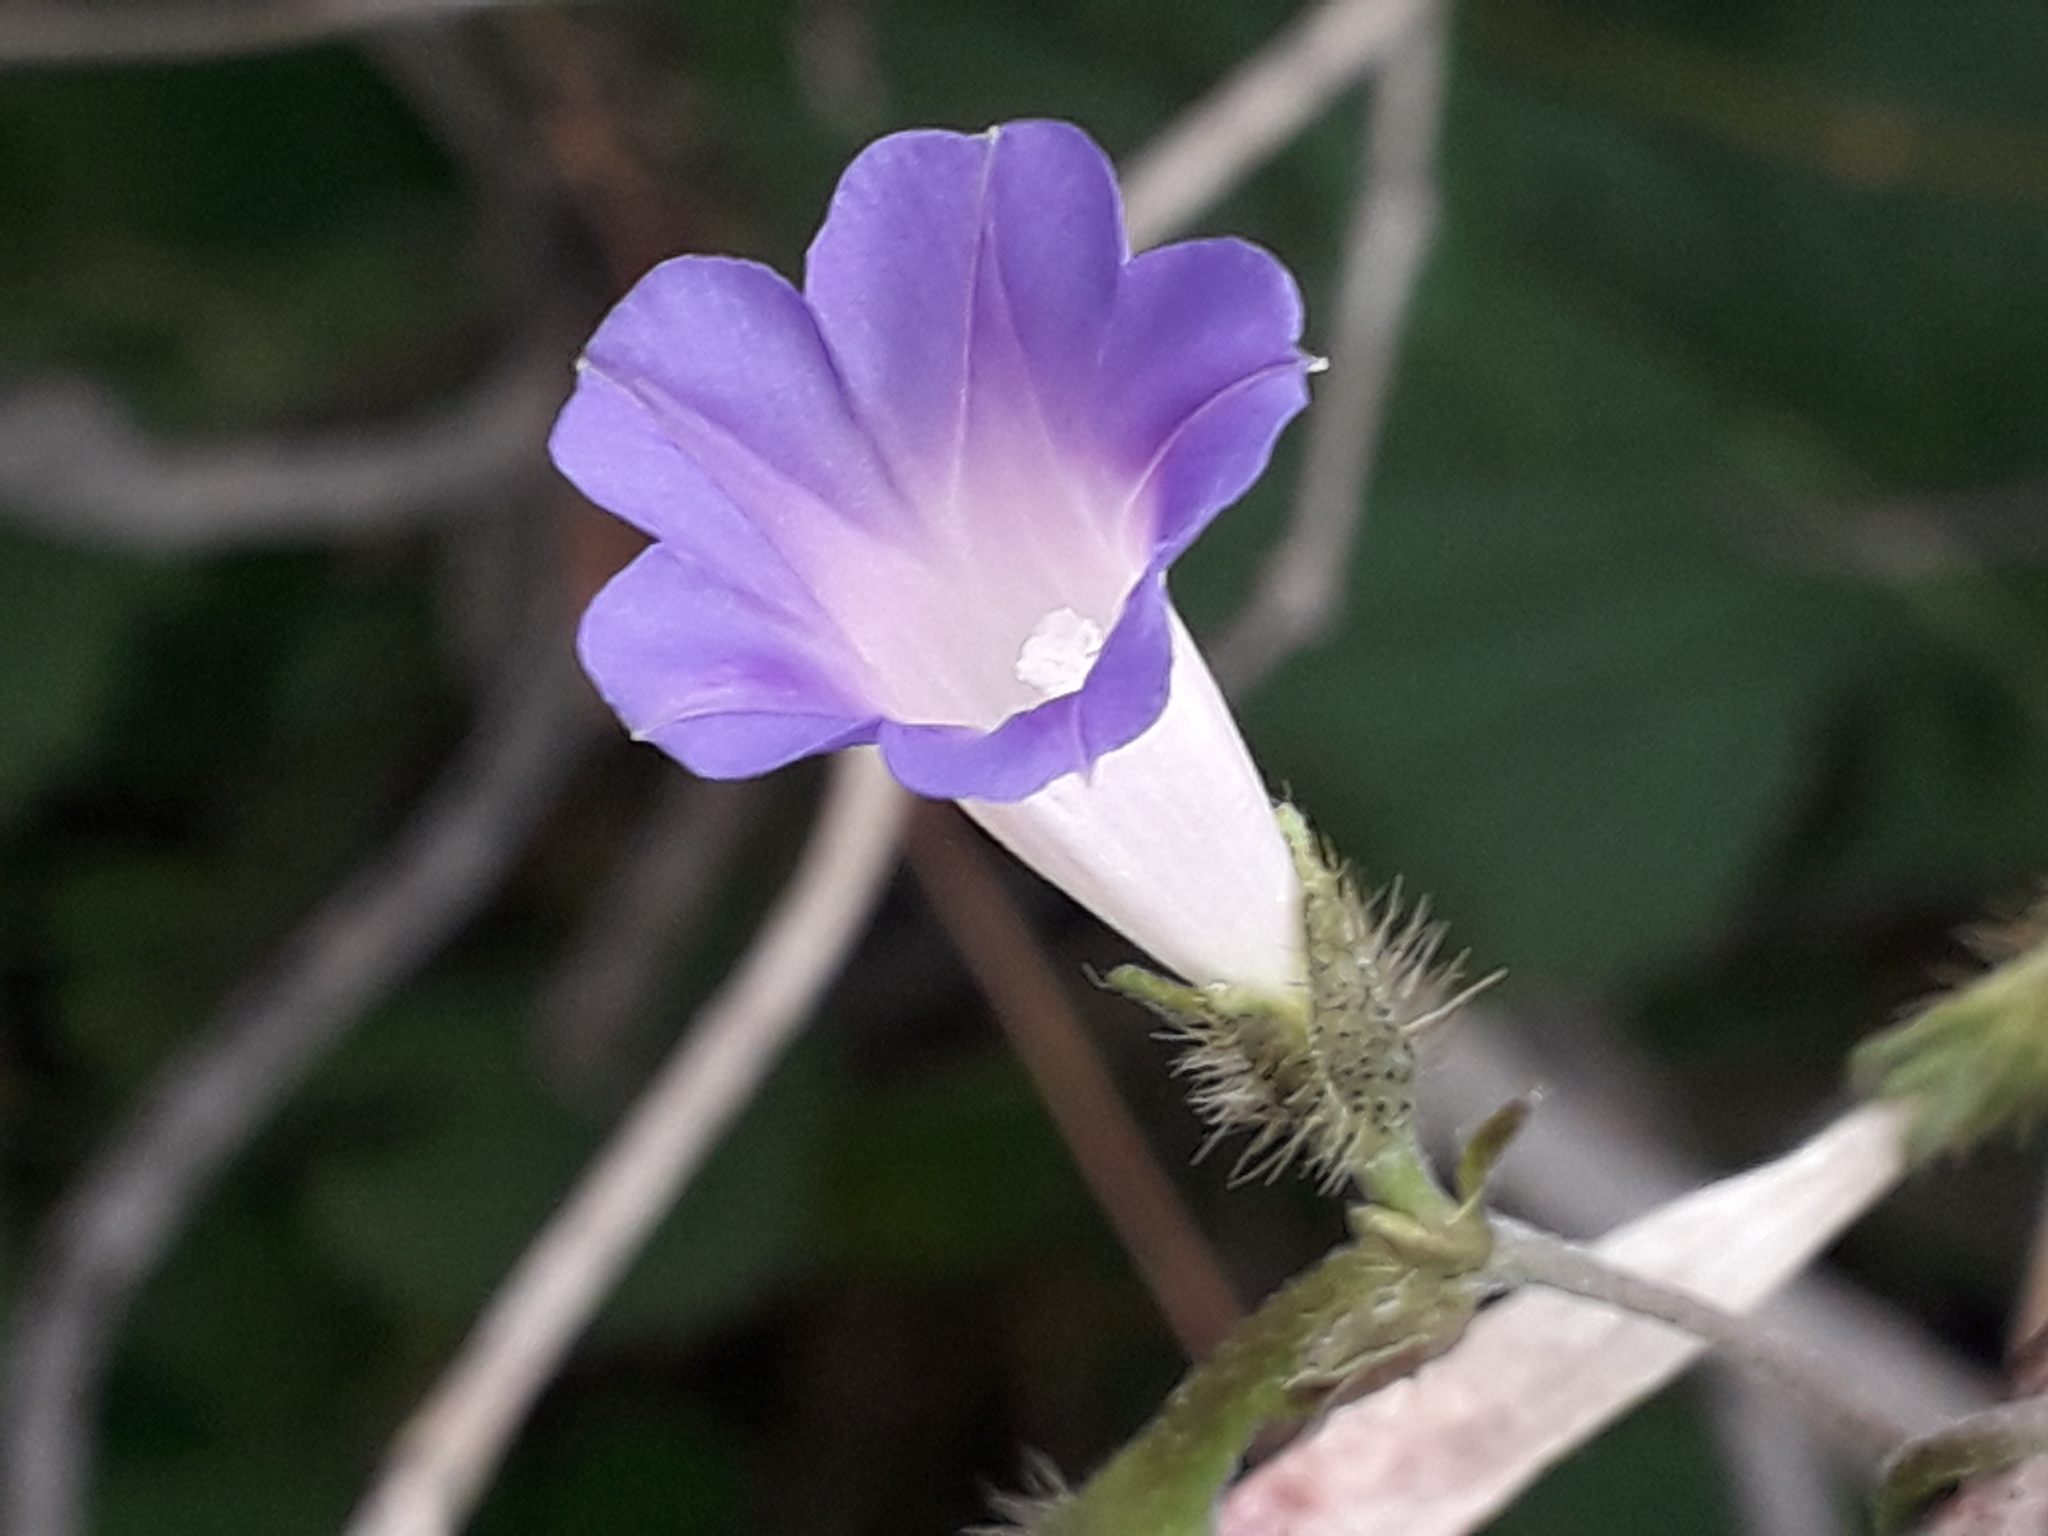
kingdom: Plantae
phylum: Tracheophyta
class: Magnoliopsida
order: Solanales
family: Convolvulaceae
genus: Ipomoea
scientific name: Ipomoea purpurea
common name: Common morning-glory
